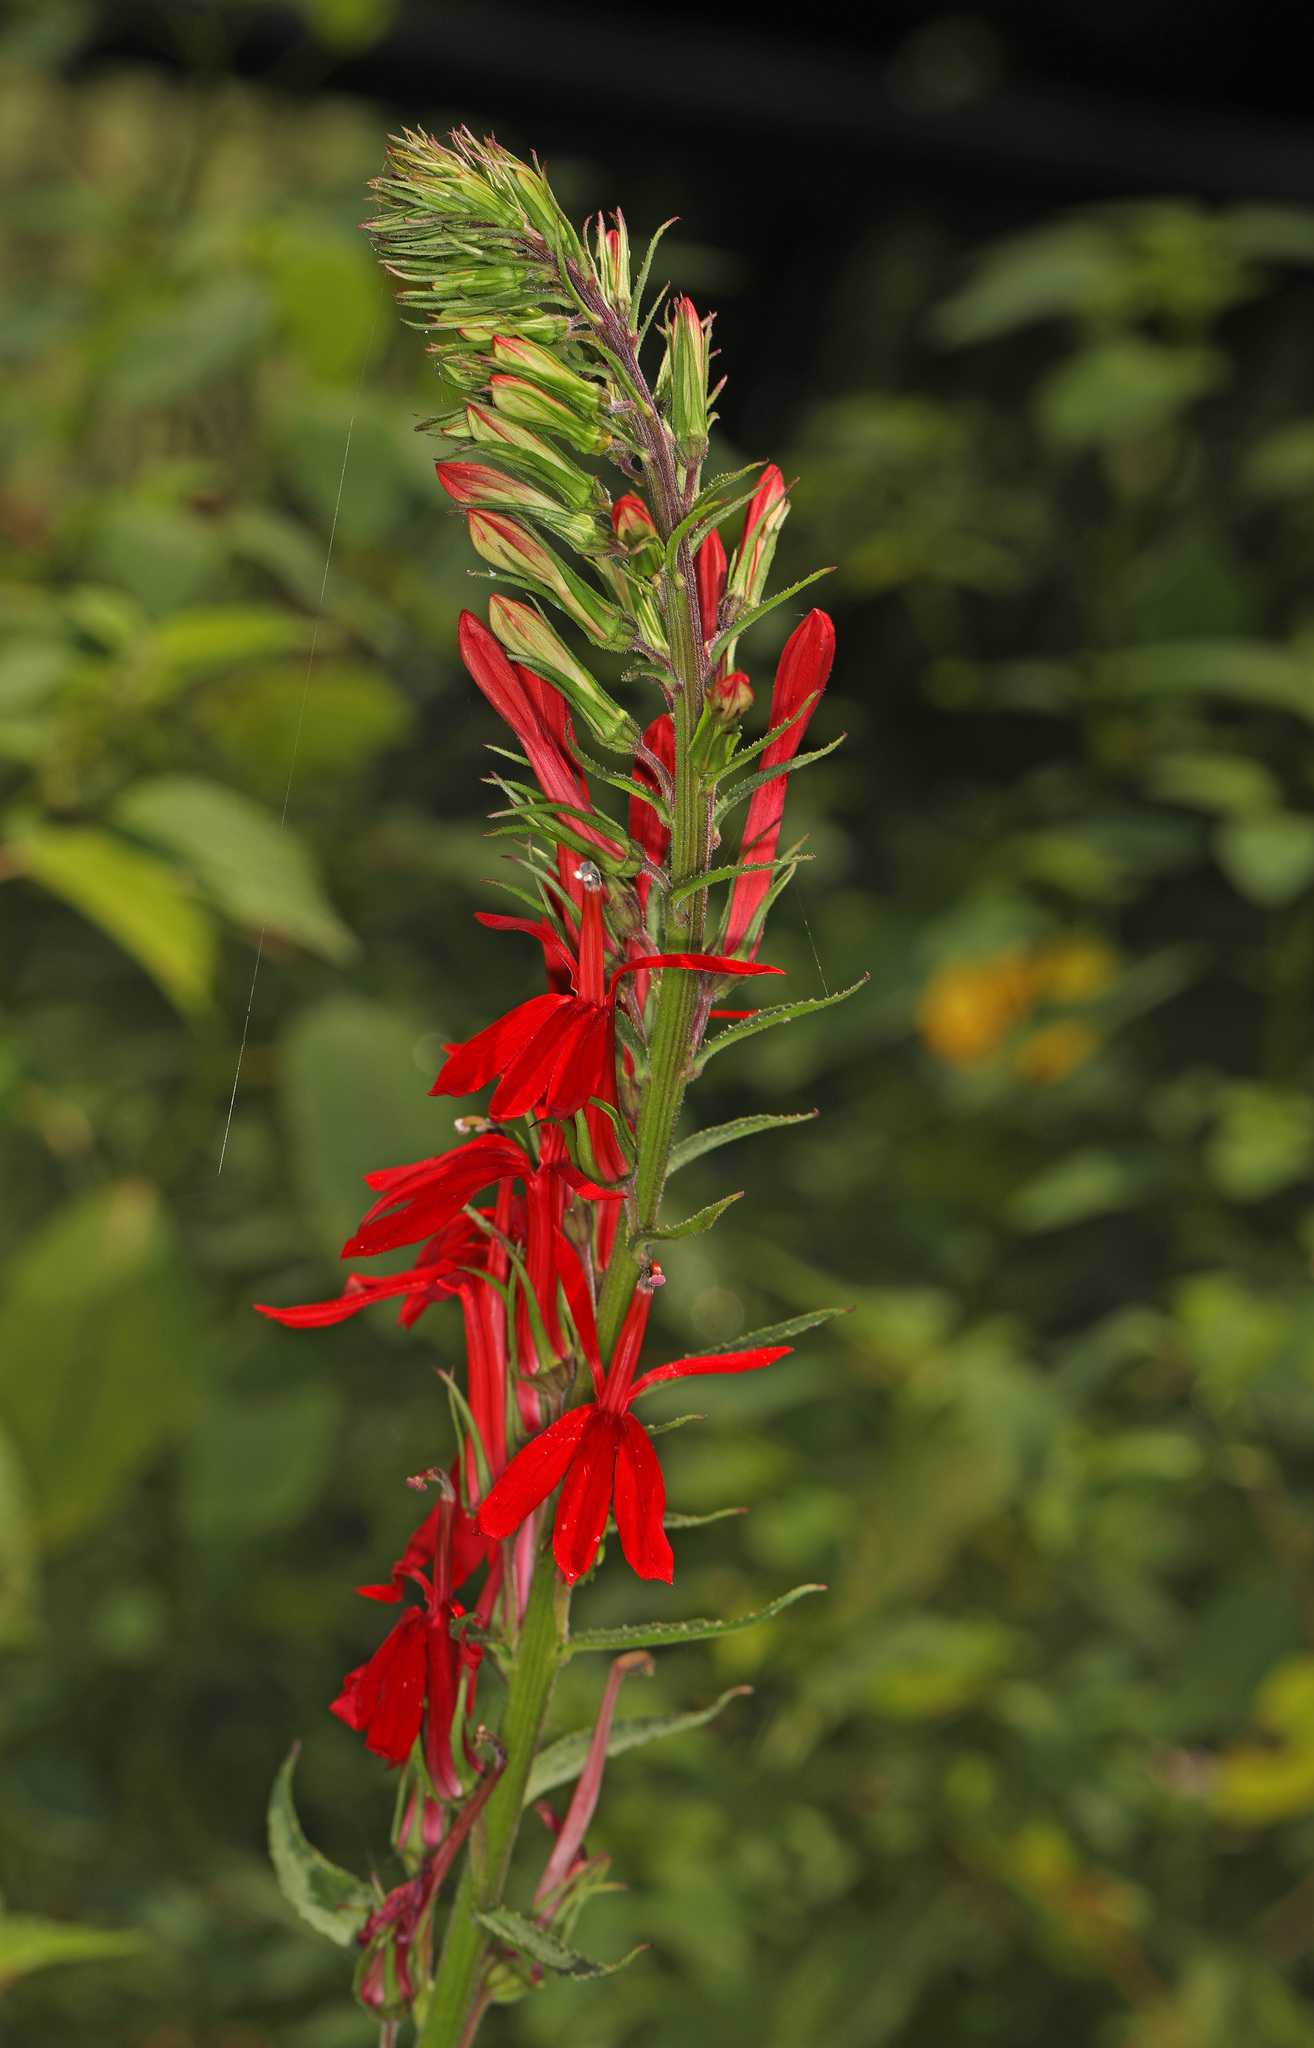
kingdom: Plantae
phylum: Tracheophyta
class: Magnoliopsida
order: Asterales
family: Campanulaceae
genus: Lobelia
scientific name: Lobelia cardinalis
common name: Cardinal flower
